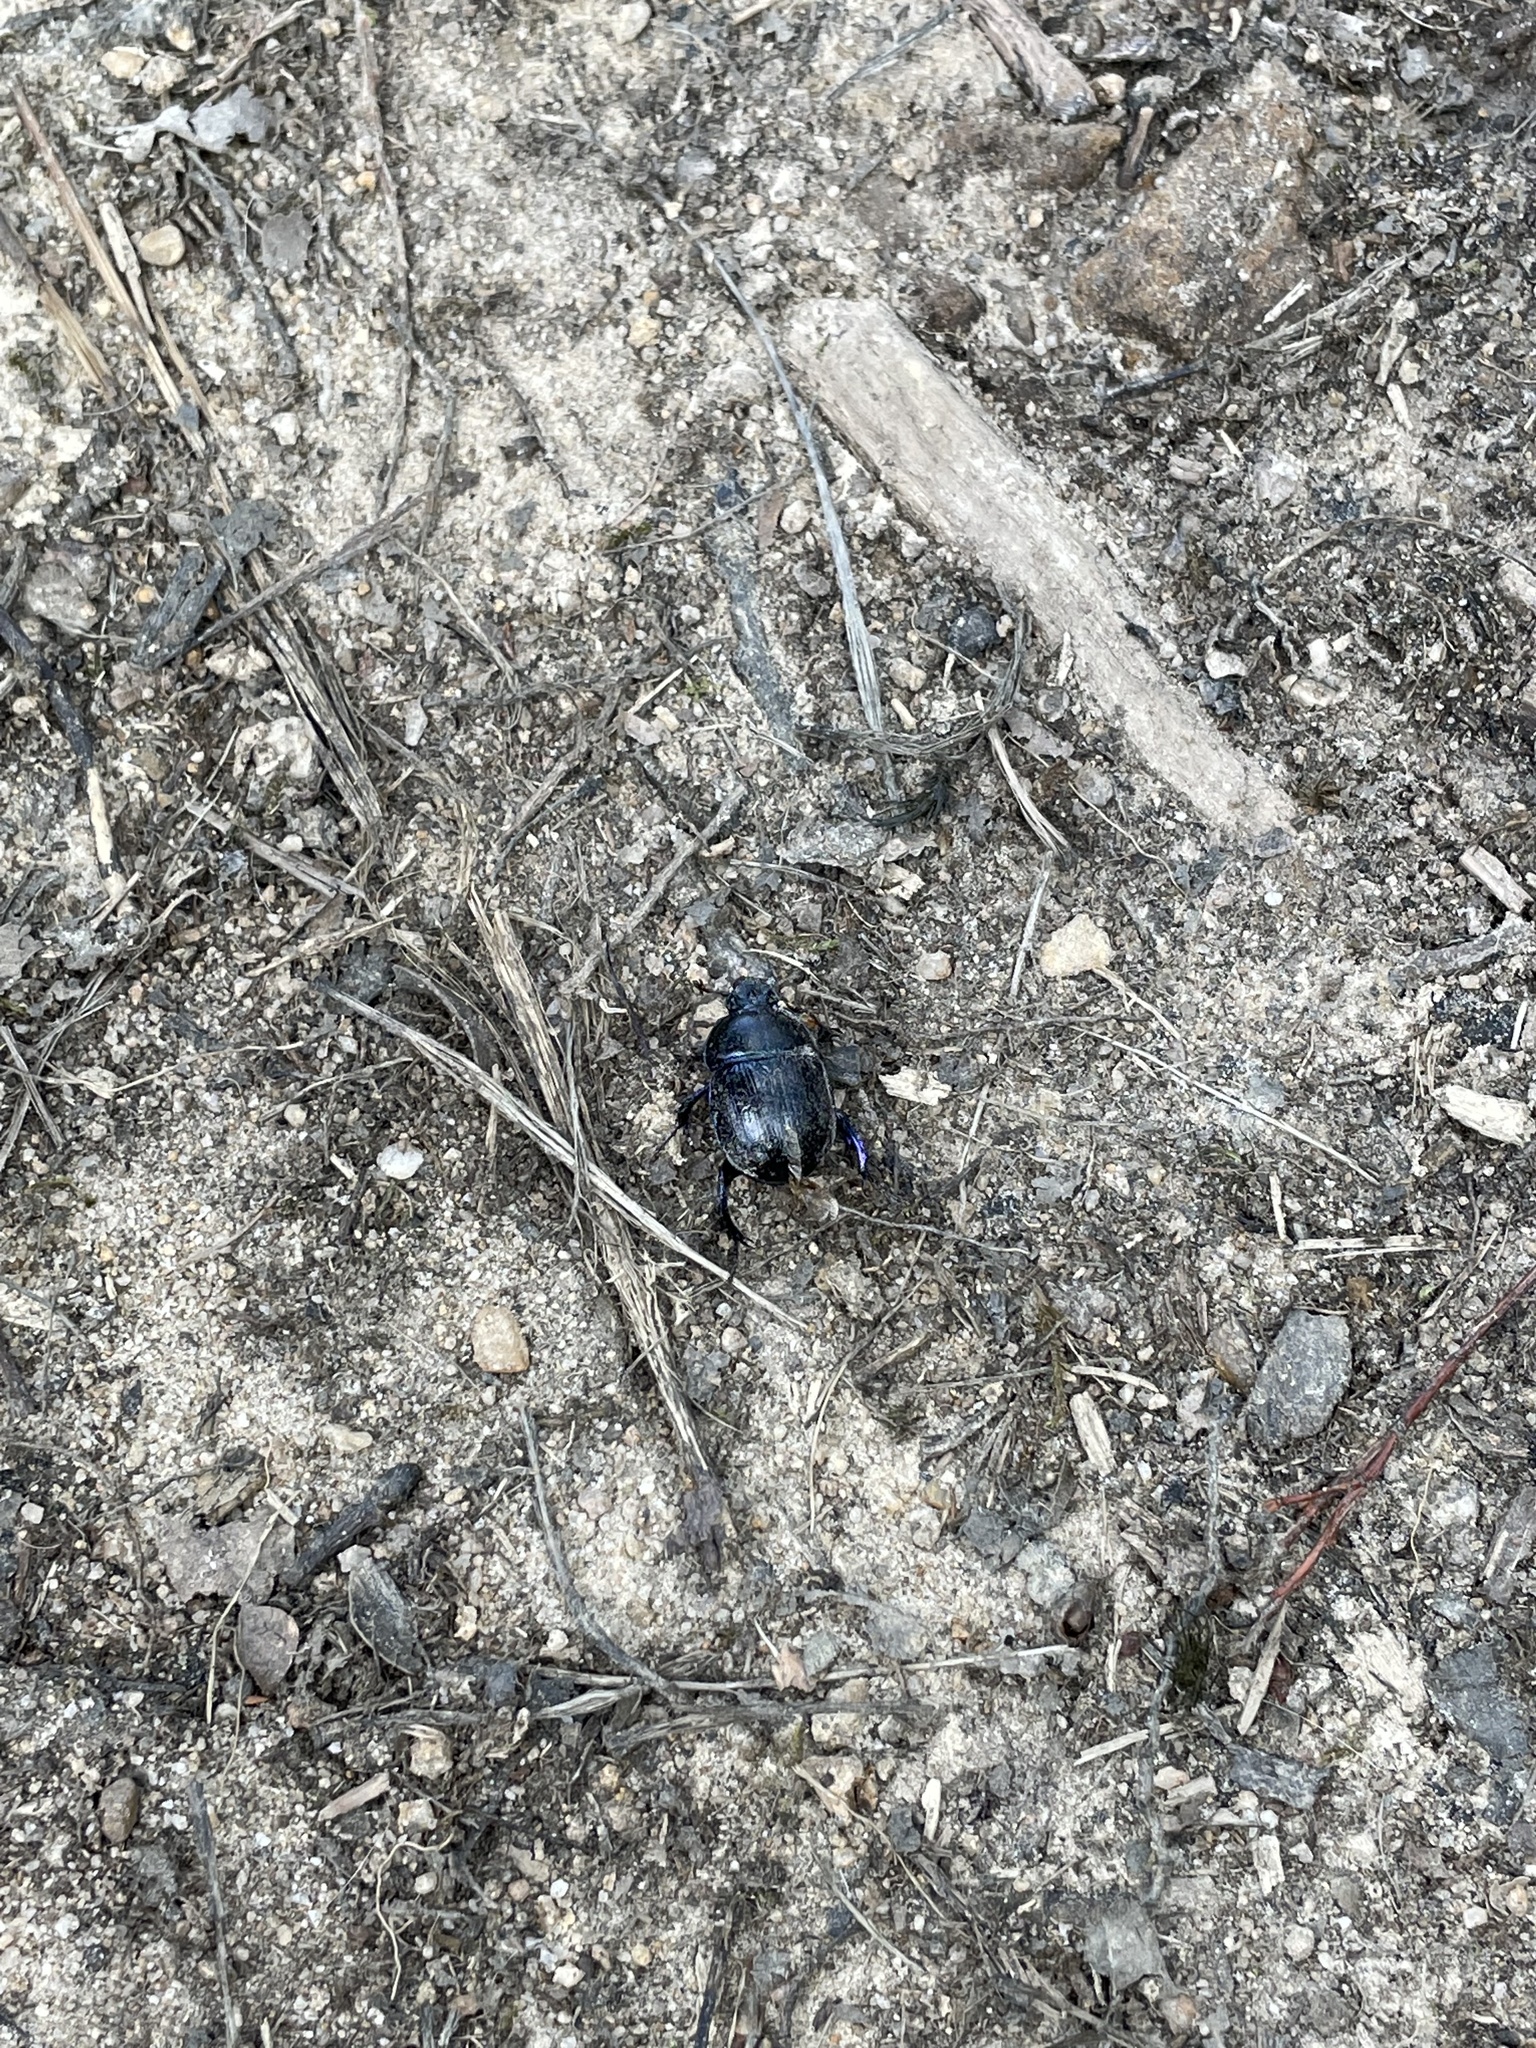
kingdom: Animalia
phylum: Arthropoda
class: Insecta
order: Coleoptera
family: Geotrupidae
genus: Anoplotrupes
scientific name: Anoplotrupes stercorosus
